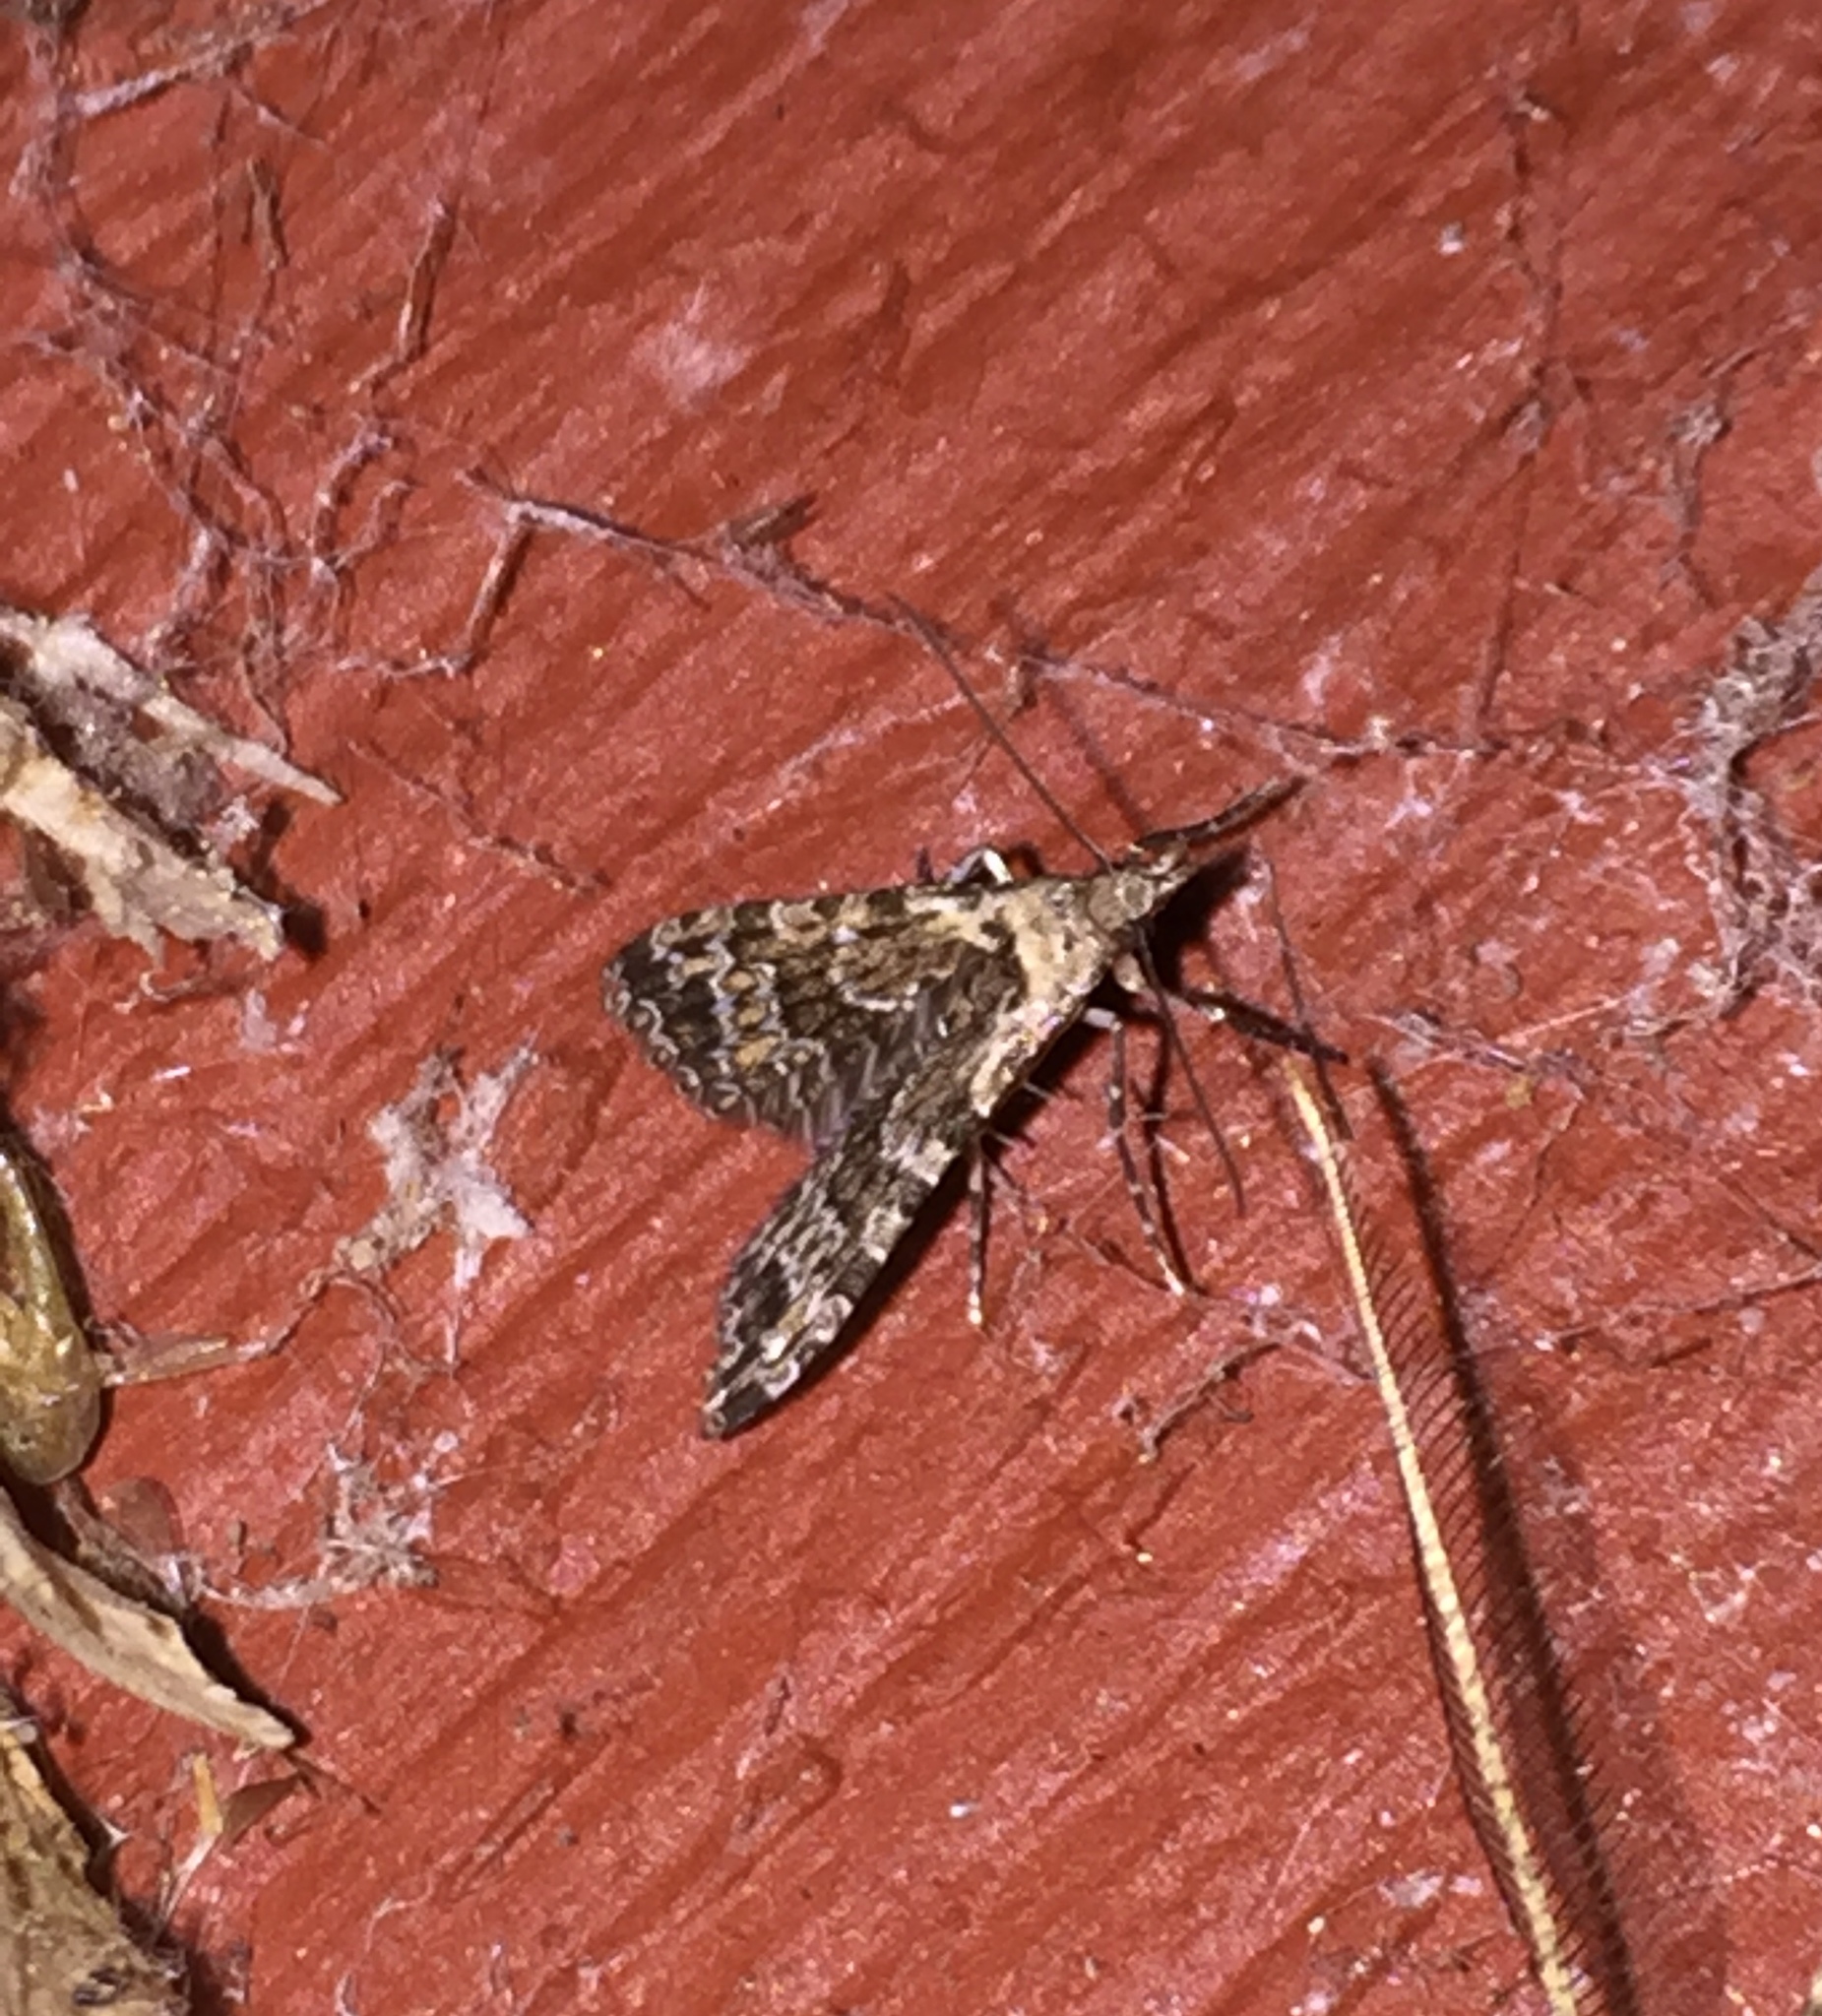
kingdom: Animalia
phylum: Arthropoda
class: Insecta
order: Lepidoptera
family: Alucitidae
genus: Alucita
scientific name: Alucita montana
